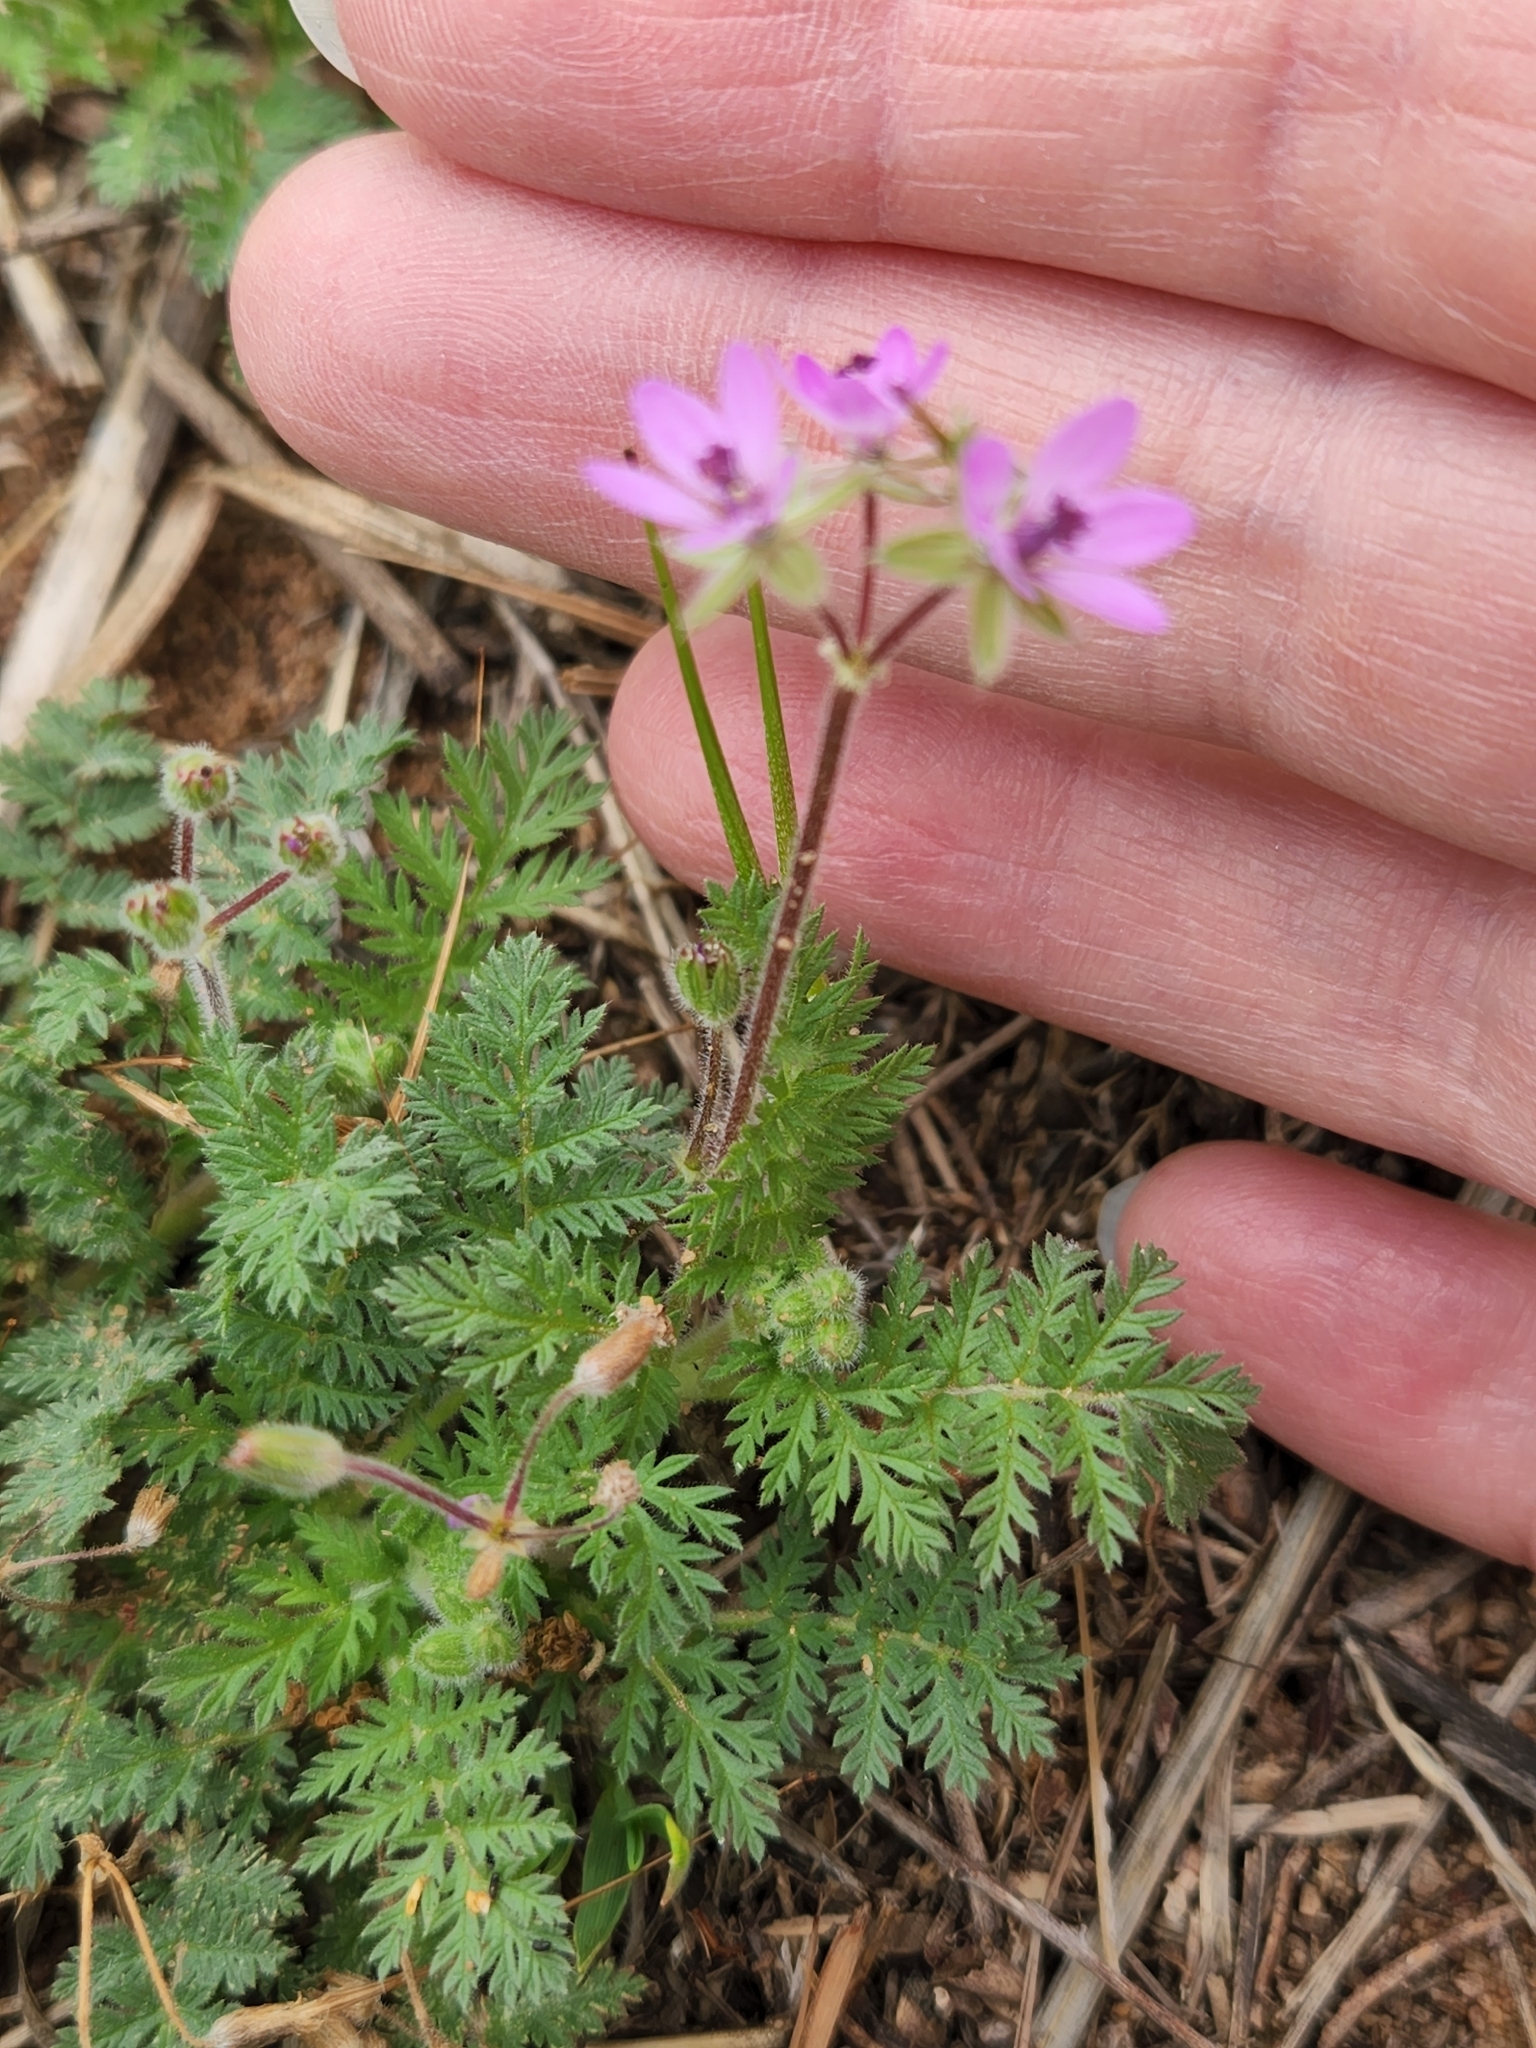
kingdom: Plantae
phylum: Tracheophyta
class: Magnoliopsida
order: Geraniales
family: Geraniaceae
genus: Erodium
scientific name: Erodium cicutarium
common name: Common stork's-bill
